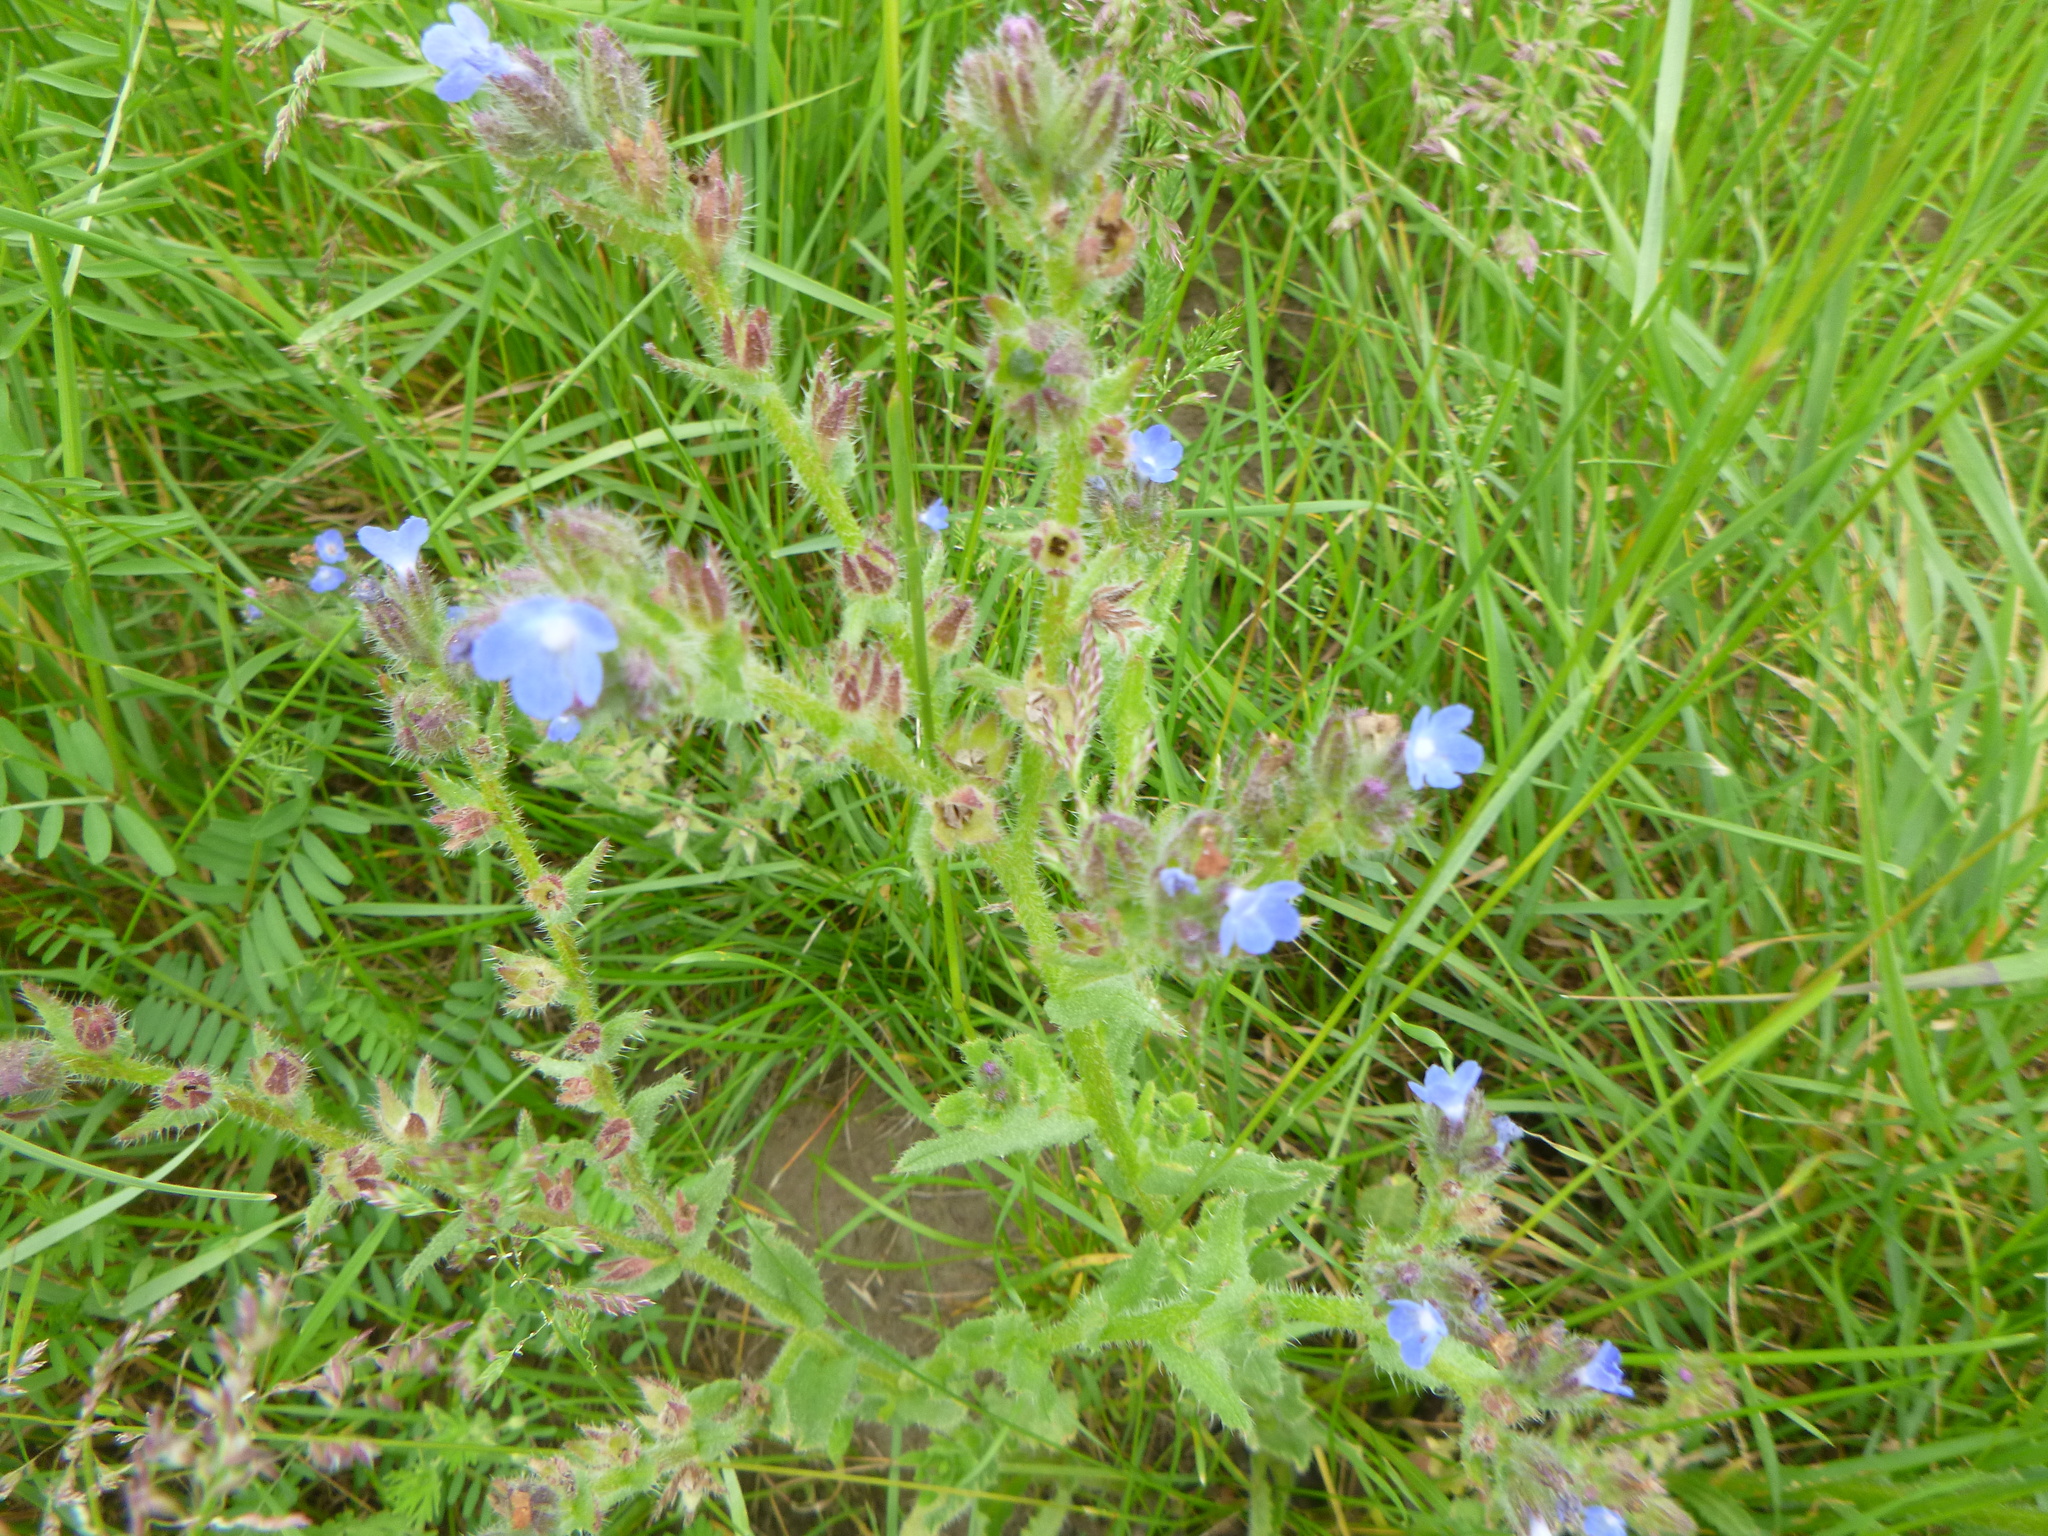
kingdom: Plantae
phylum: Tracheophyta
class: Magnoliopsida
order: Boraginales
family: Boraginaceae
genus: Lycopsis
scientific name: Lycopsis arvensis
